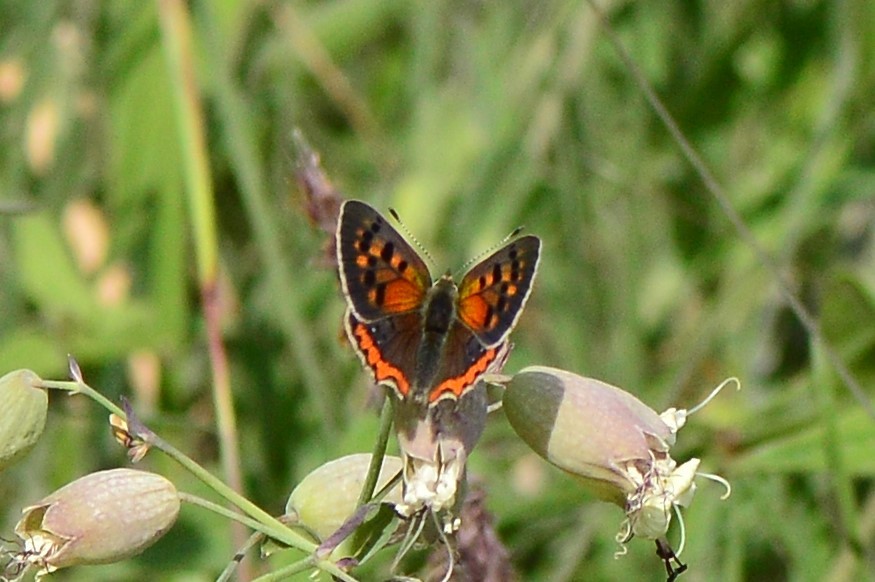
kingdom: Animalia
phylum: Arthropoda
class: Insecta
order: Lepidoptera
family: Lycaenidae
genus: Lycaena
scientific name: Lycaena phlaeas
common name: Small copper
